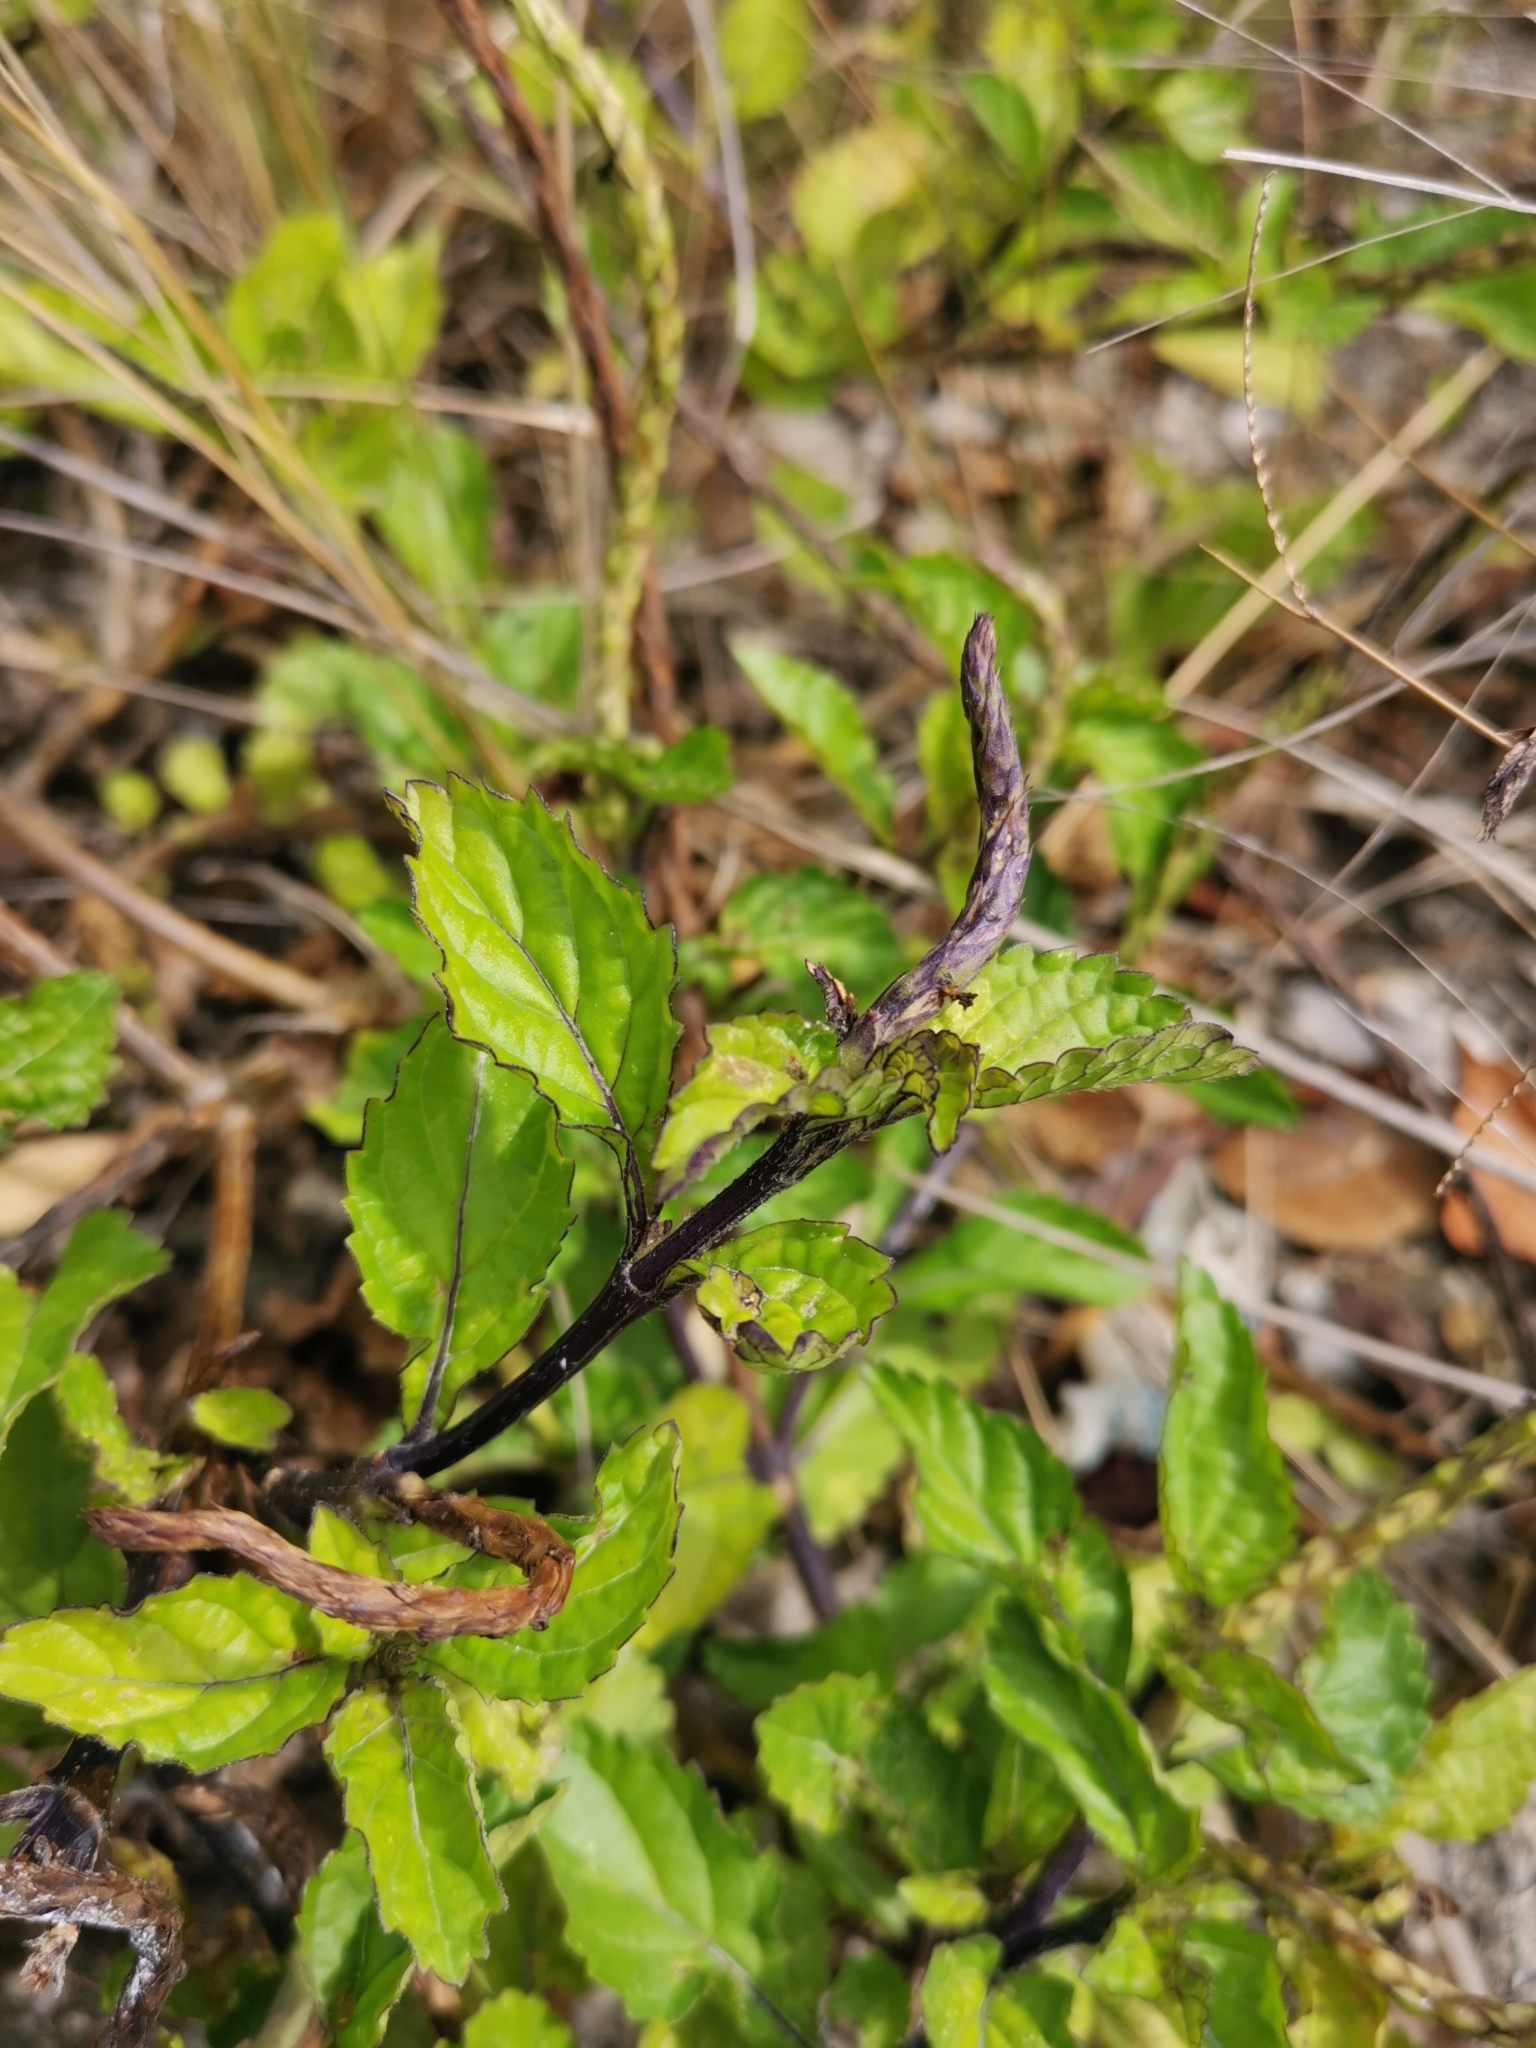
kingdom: Plantae
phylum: Tracheophyta
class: Magnoliopsida
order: Lamiales
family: Verbenaceae
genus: Stachytarpheta
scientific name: Stachytarpheta jamaicensis
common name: Light-blue snakeweed
